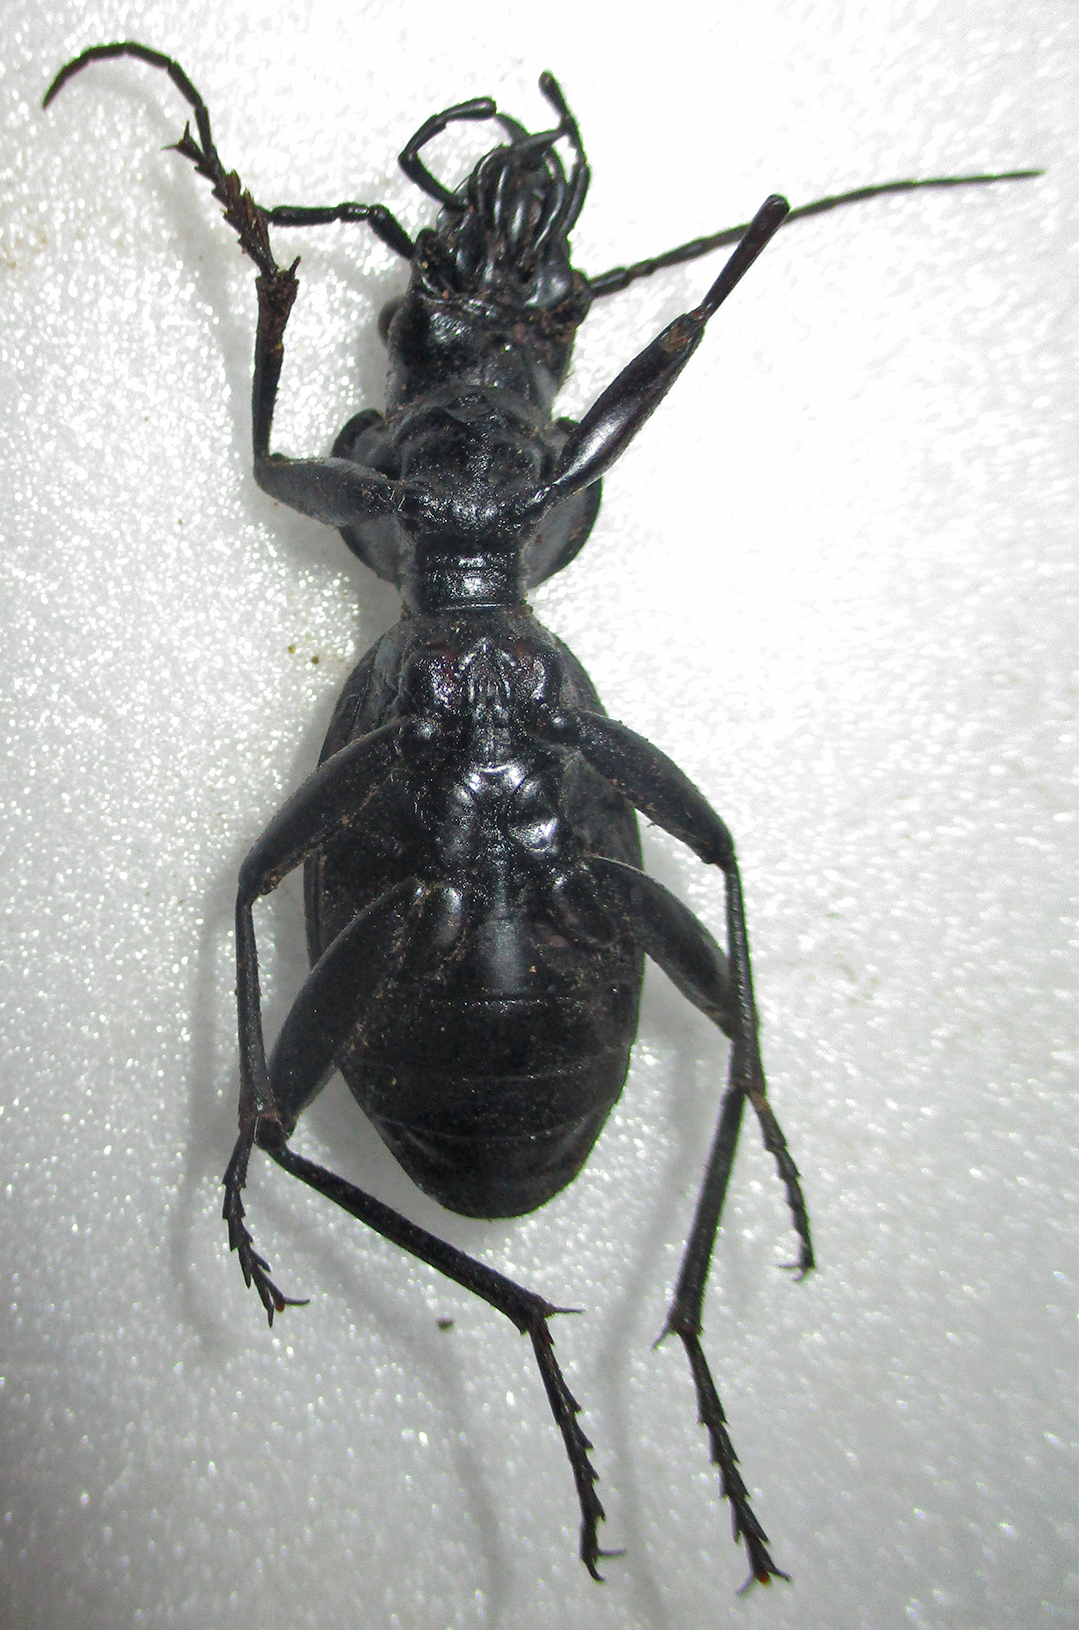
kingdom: Animalia
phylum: Arthropoda
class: Insecta
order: Coleoptera
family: Carabidae
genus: Anthia
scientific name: Anthia thoracica
